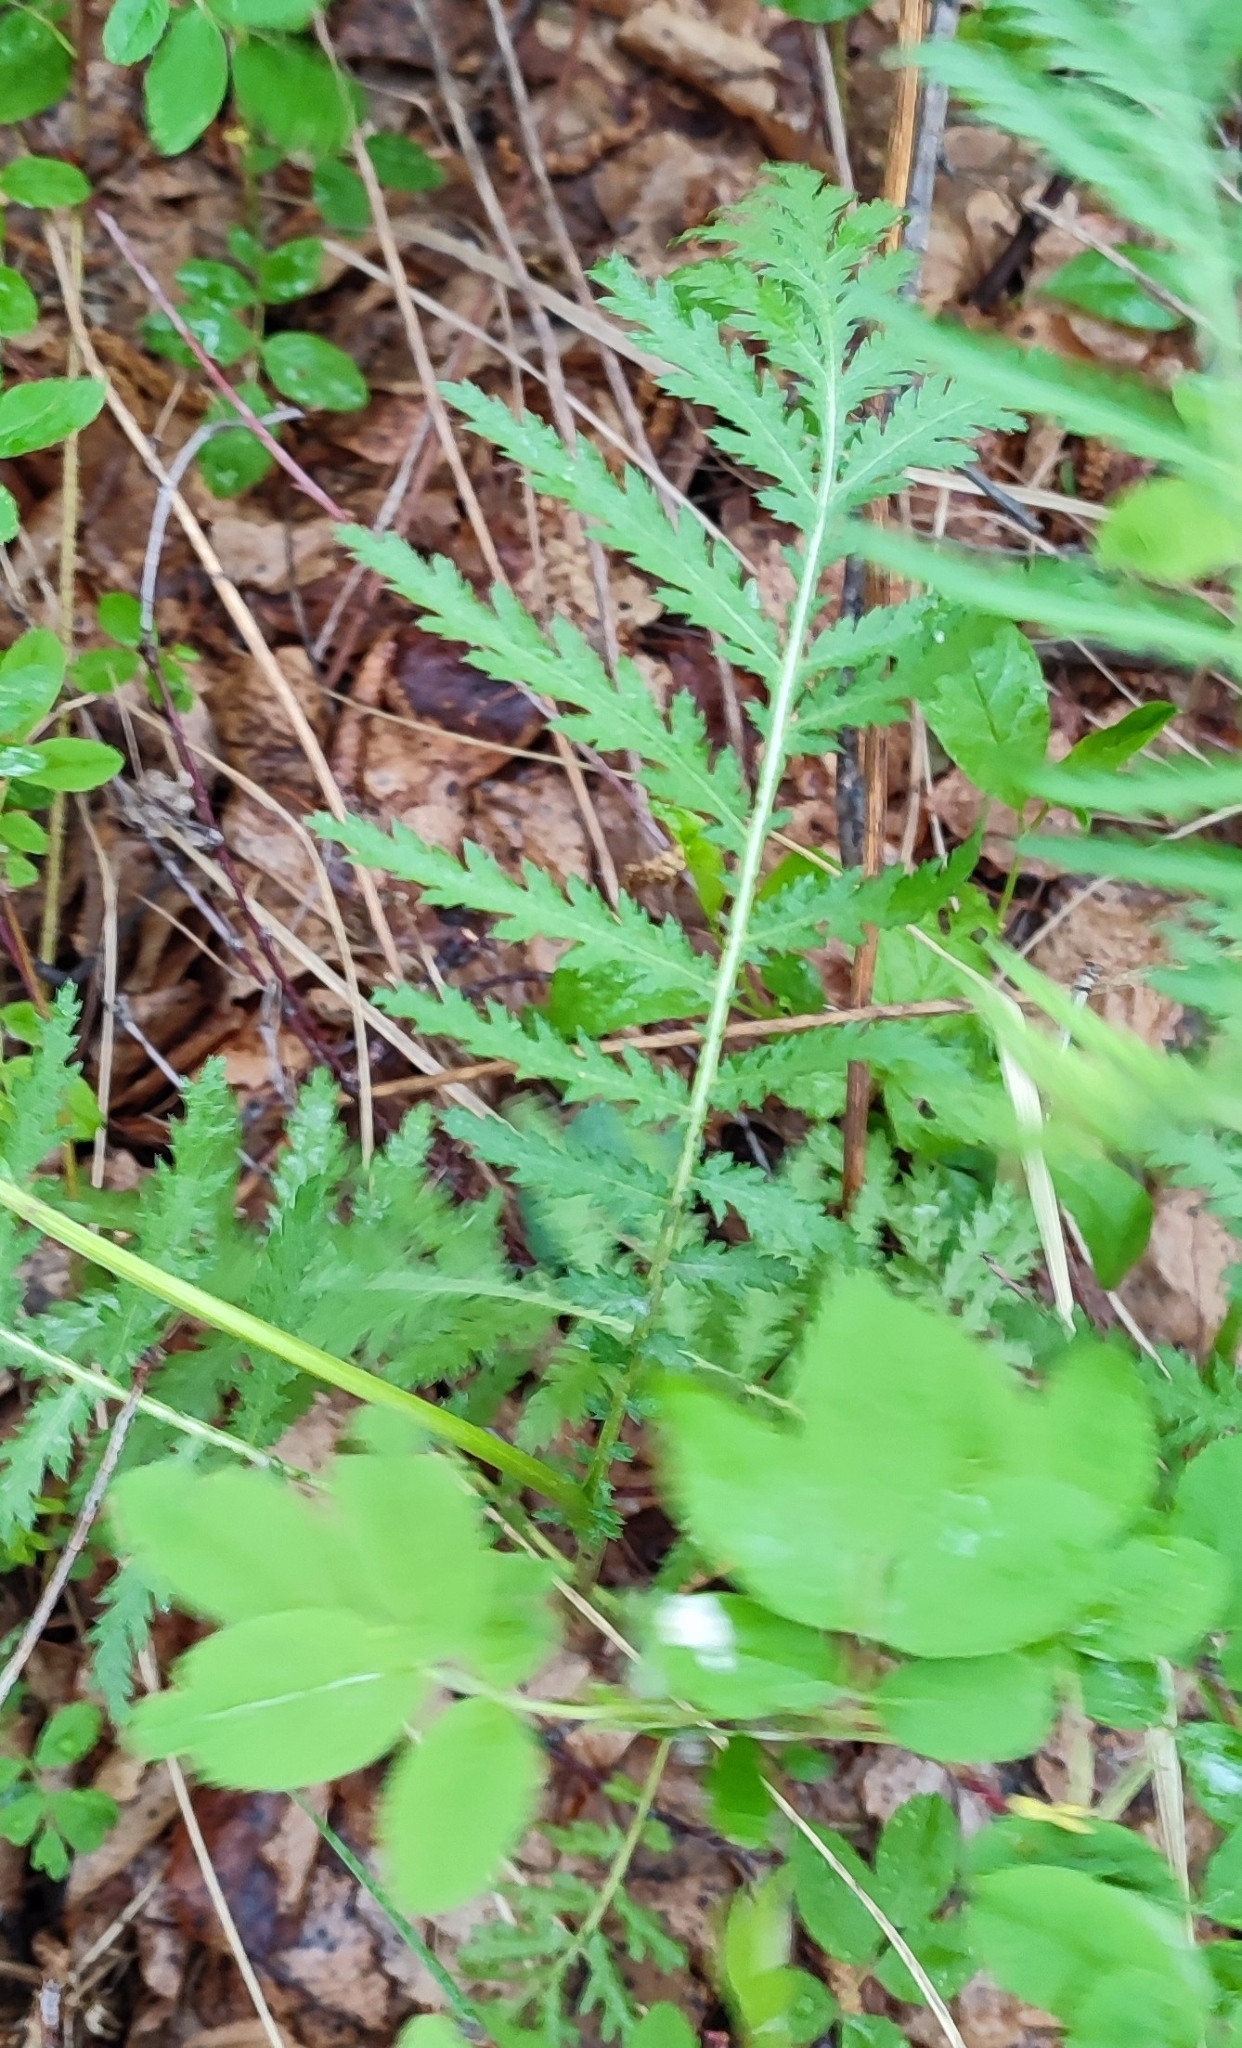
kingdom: Plantae
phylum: Tracheophyta
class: Magnoliopsida
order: Asterales
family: Asteraceae
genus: Tanacetum
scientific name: Tanacetum vulgare
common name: Common tansy
